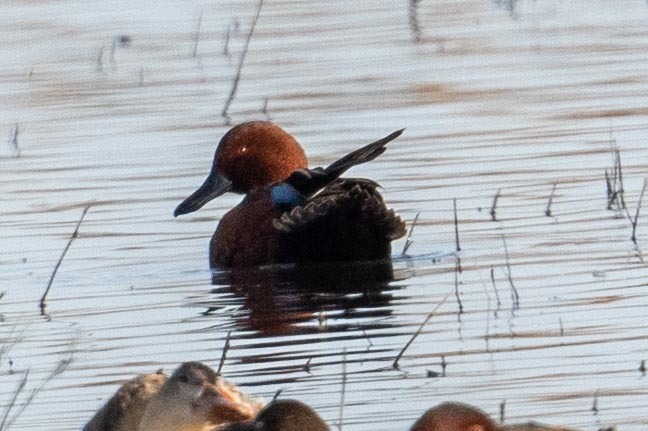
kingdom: Animalia
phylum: Chordata
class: Aves
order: Anseriformes
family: Anatidae
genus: Spatula
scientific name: Spatula cyanoptera
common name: Cinnamon teal
